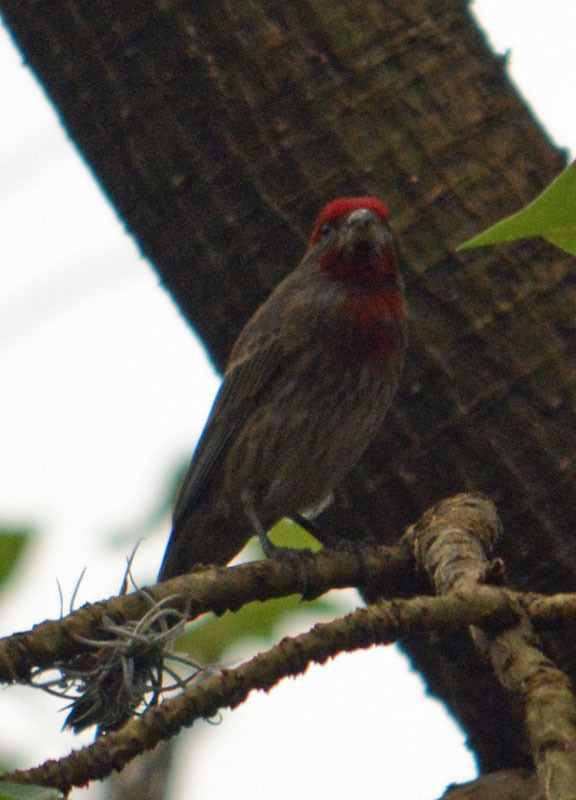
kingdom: Animalia
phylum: Chordata
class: Aves
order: Passeriformes
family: Fringillidae
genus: Haemorhous
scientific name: Haemorhous mexicanus
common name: House finch
